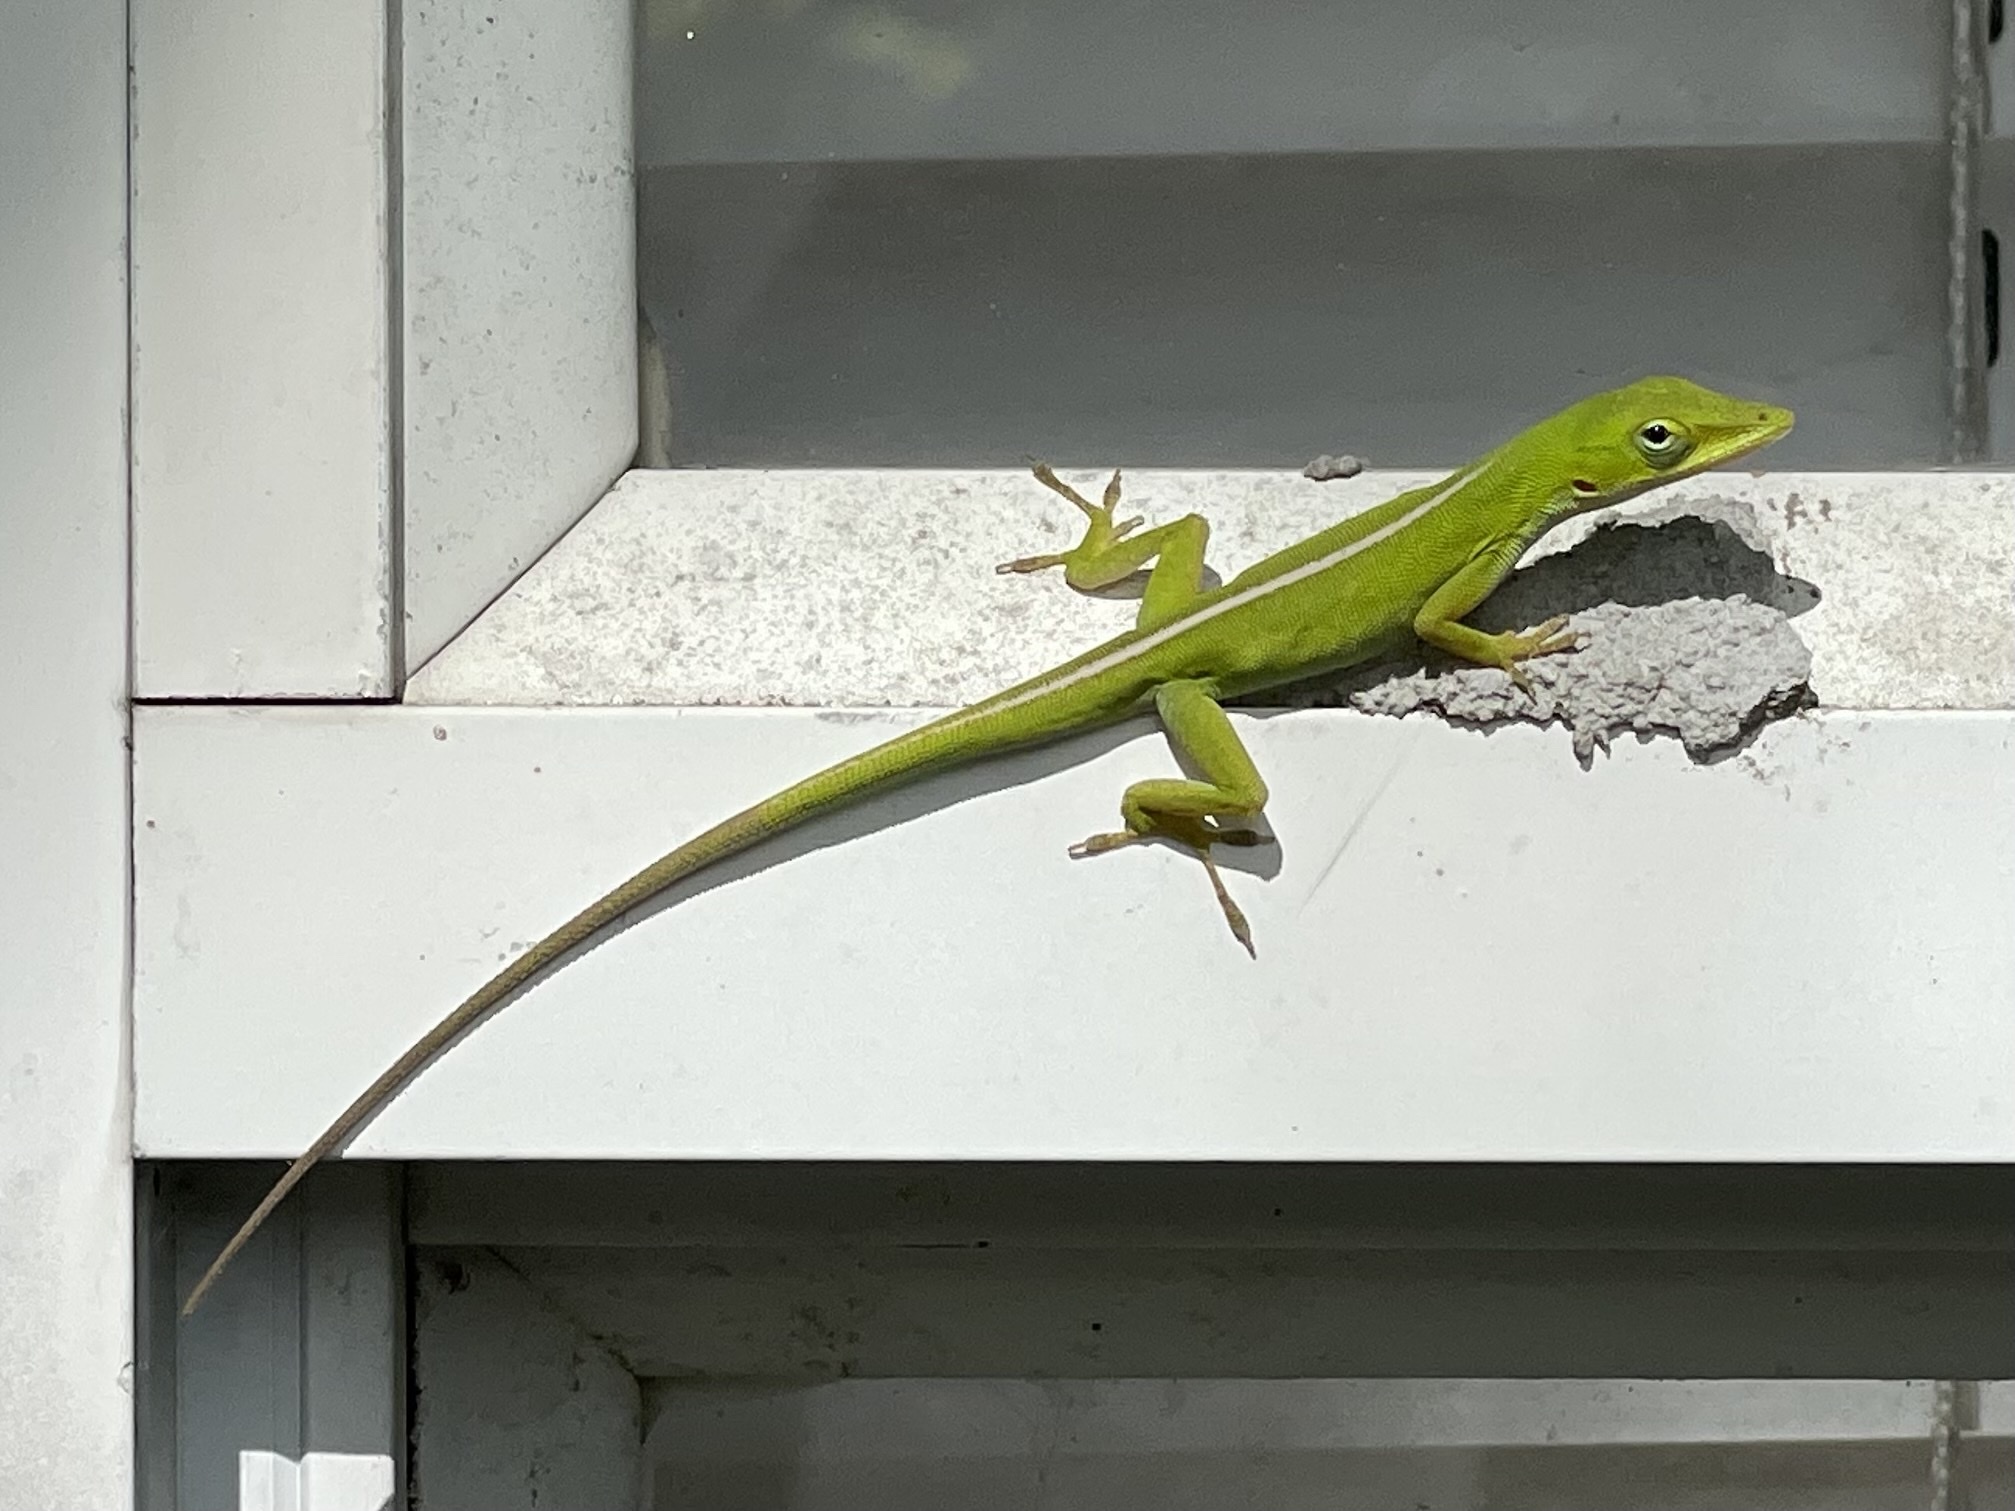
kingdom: Animalia
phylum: Chordata
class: Squamata
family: Dactyloidae
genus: Anolis
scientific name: Anolis carolinensis
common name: Green anole
